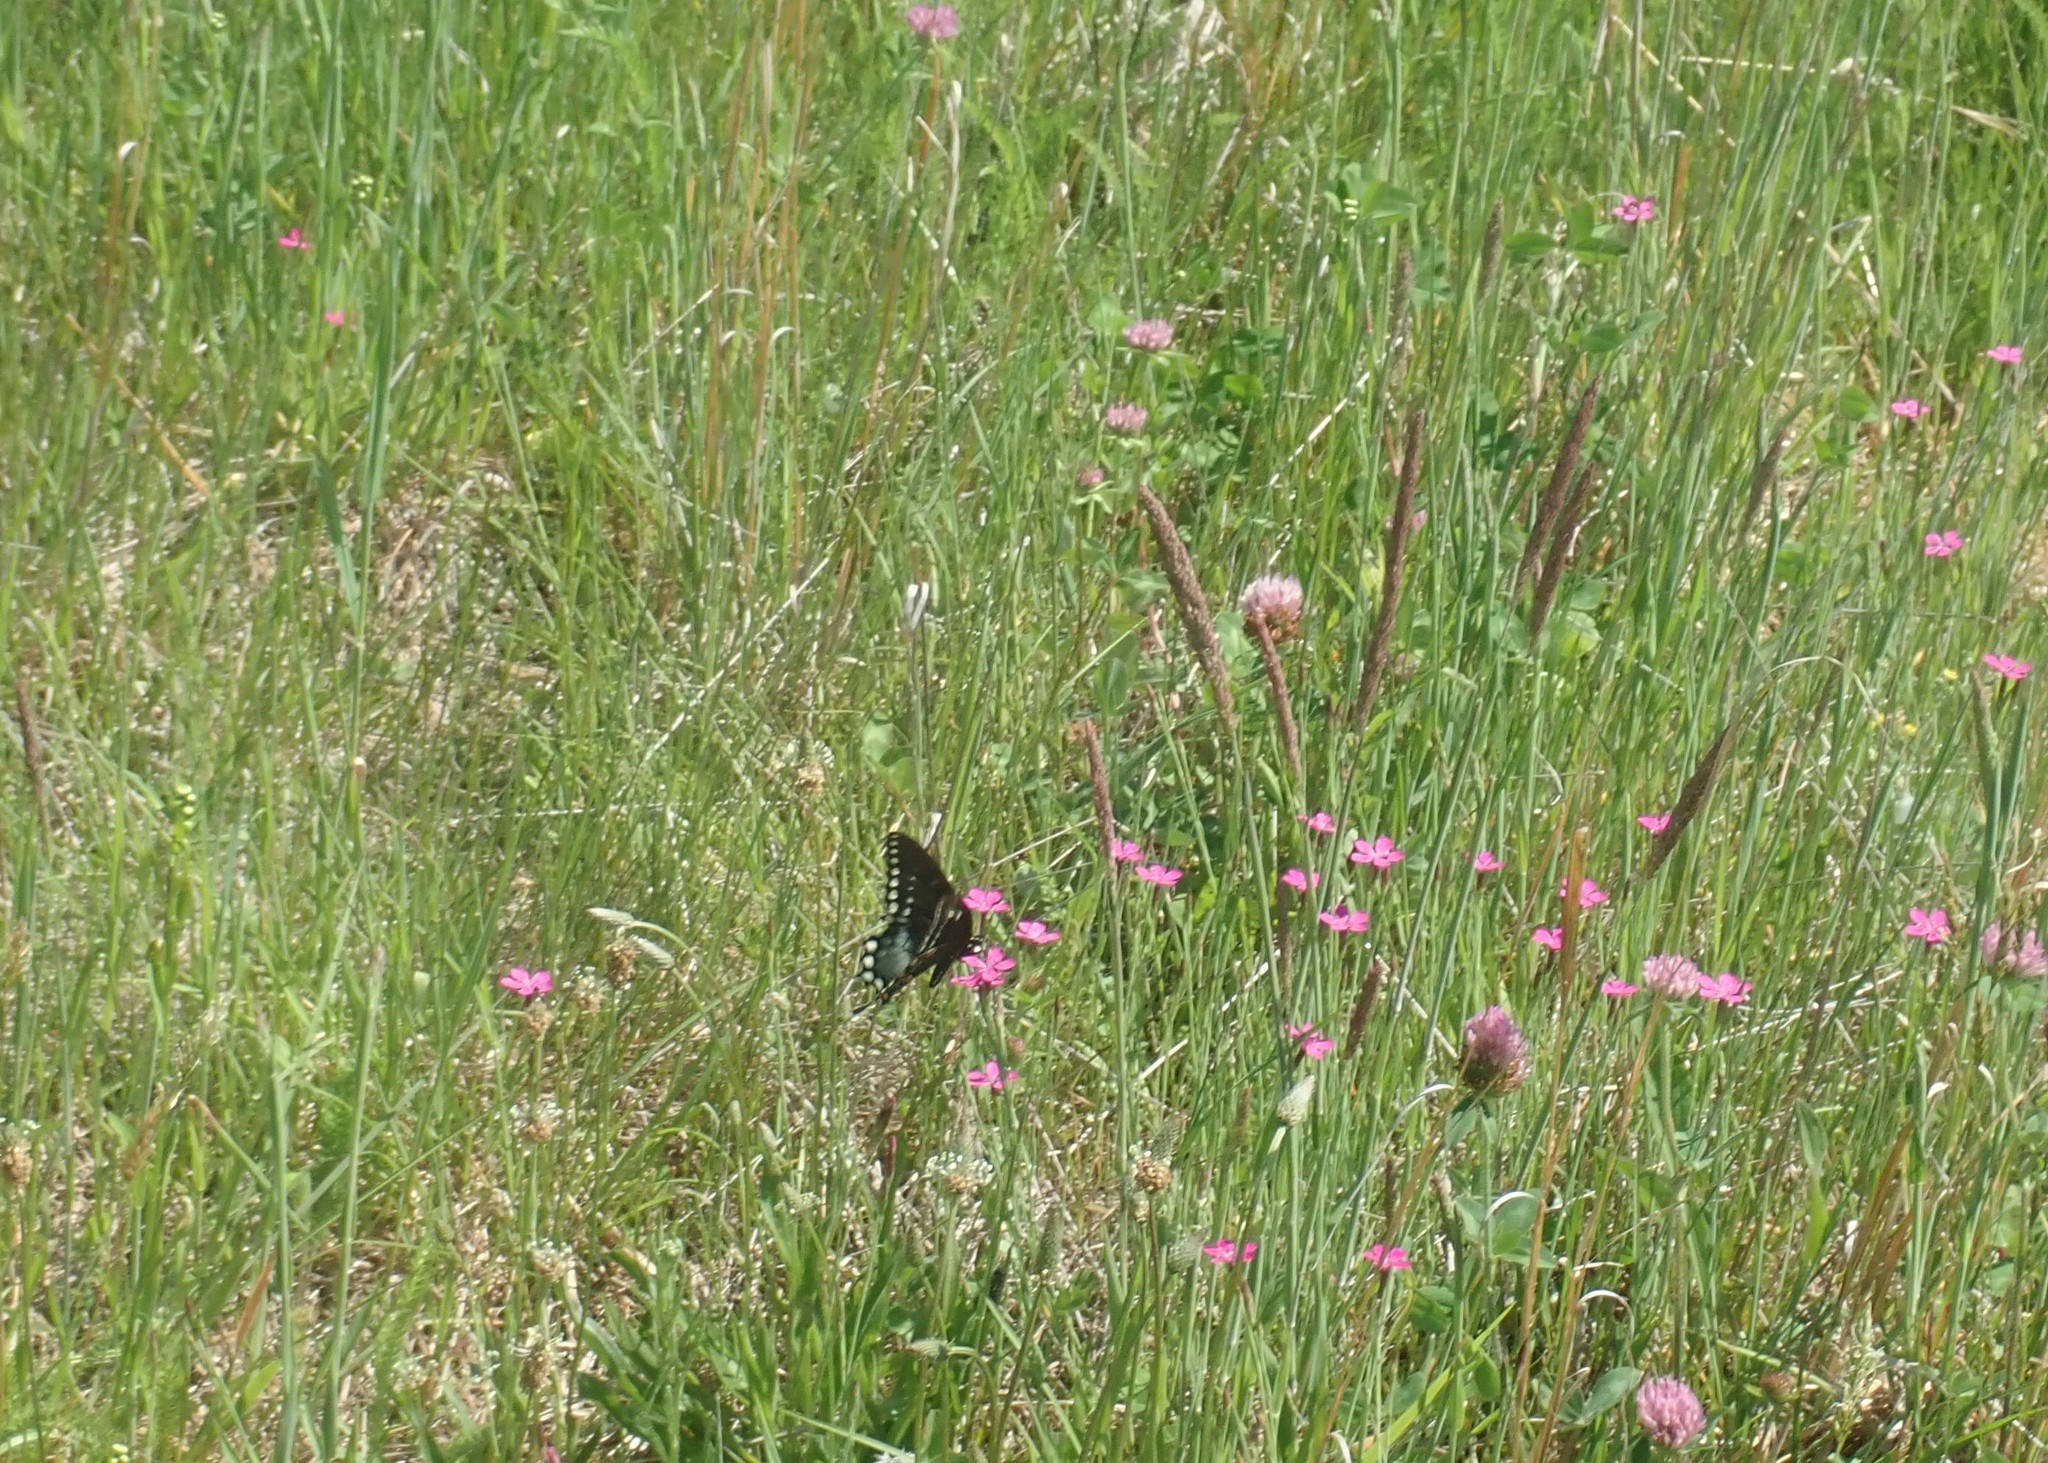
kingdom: Animalia
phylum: Arthropoda
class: Insecta
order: Lepidoptera
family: Papilionidae
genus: Papilio
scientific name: Papilio troilus
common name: Spicebush swallowtail
